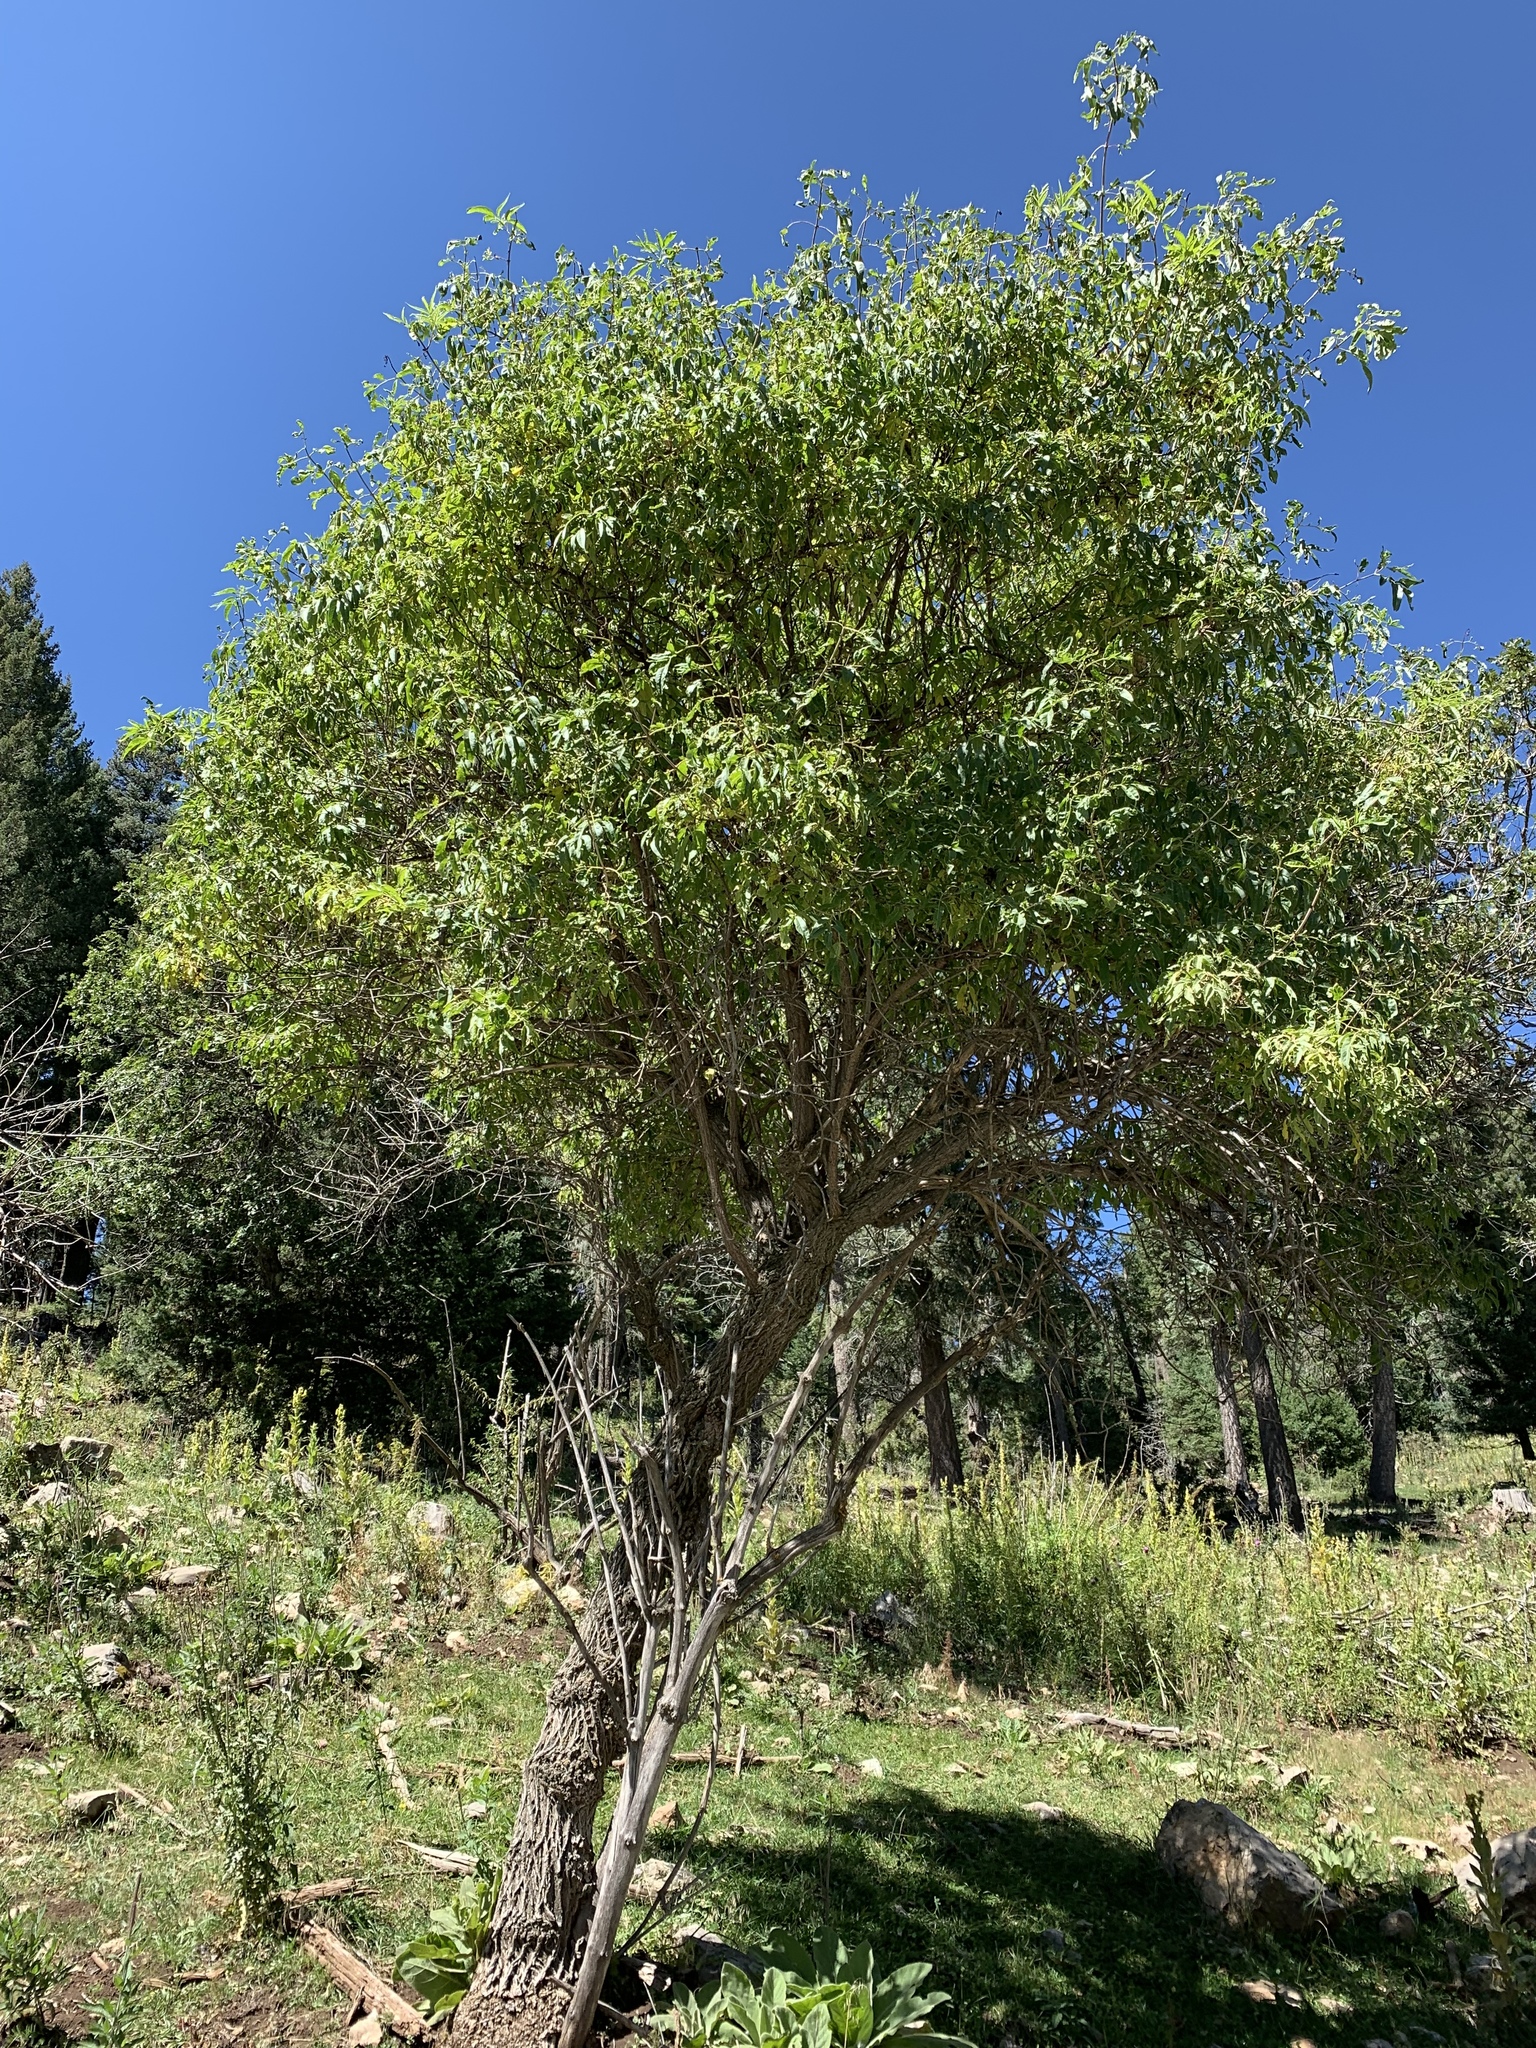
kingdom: Plantae
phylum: Tracheophyta
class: Magnoliopsida
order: Dipsacales
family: Viburnaceae
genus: Sambucus
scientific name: Sambucus cerulea
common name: Blue elder
